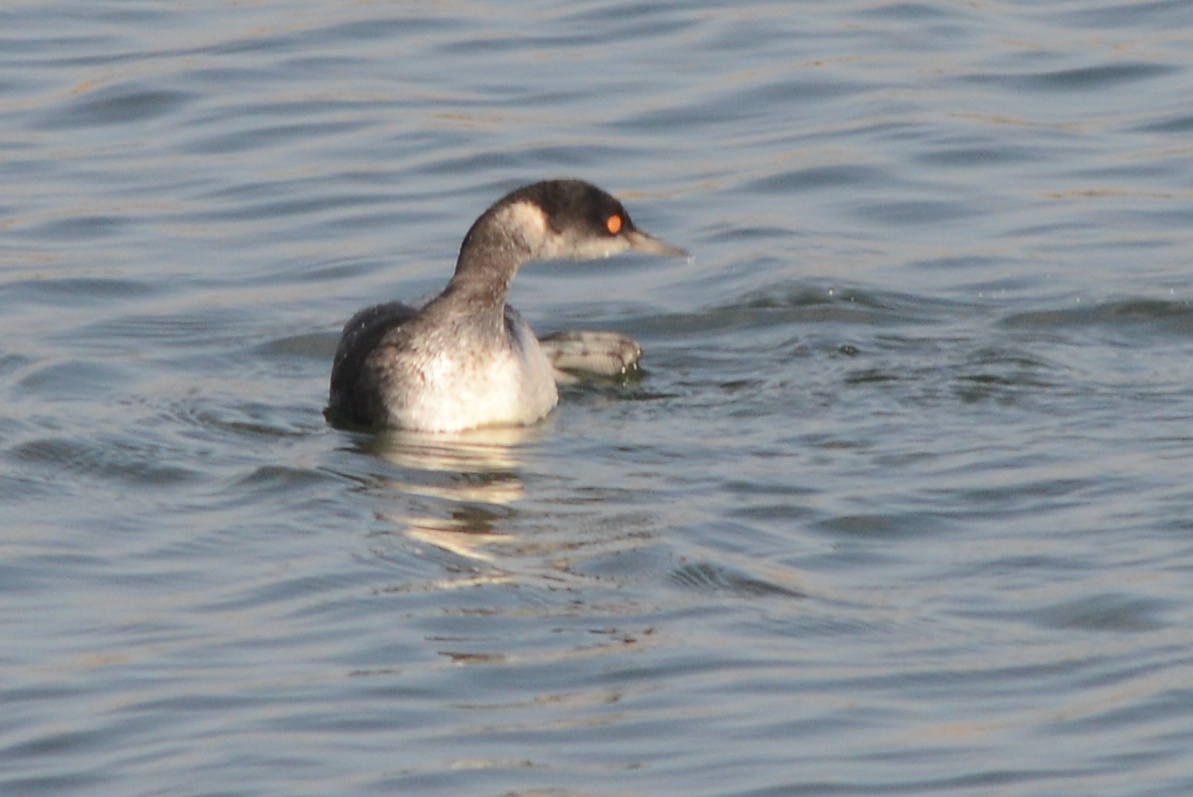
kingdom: Animalia
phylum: Chordata
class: Aves
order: Podicipediformes
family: Podicipedidae
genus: Podiceps
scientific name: Podiceps nigricollis
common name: Black-necked grebe
